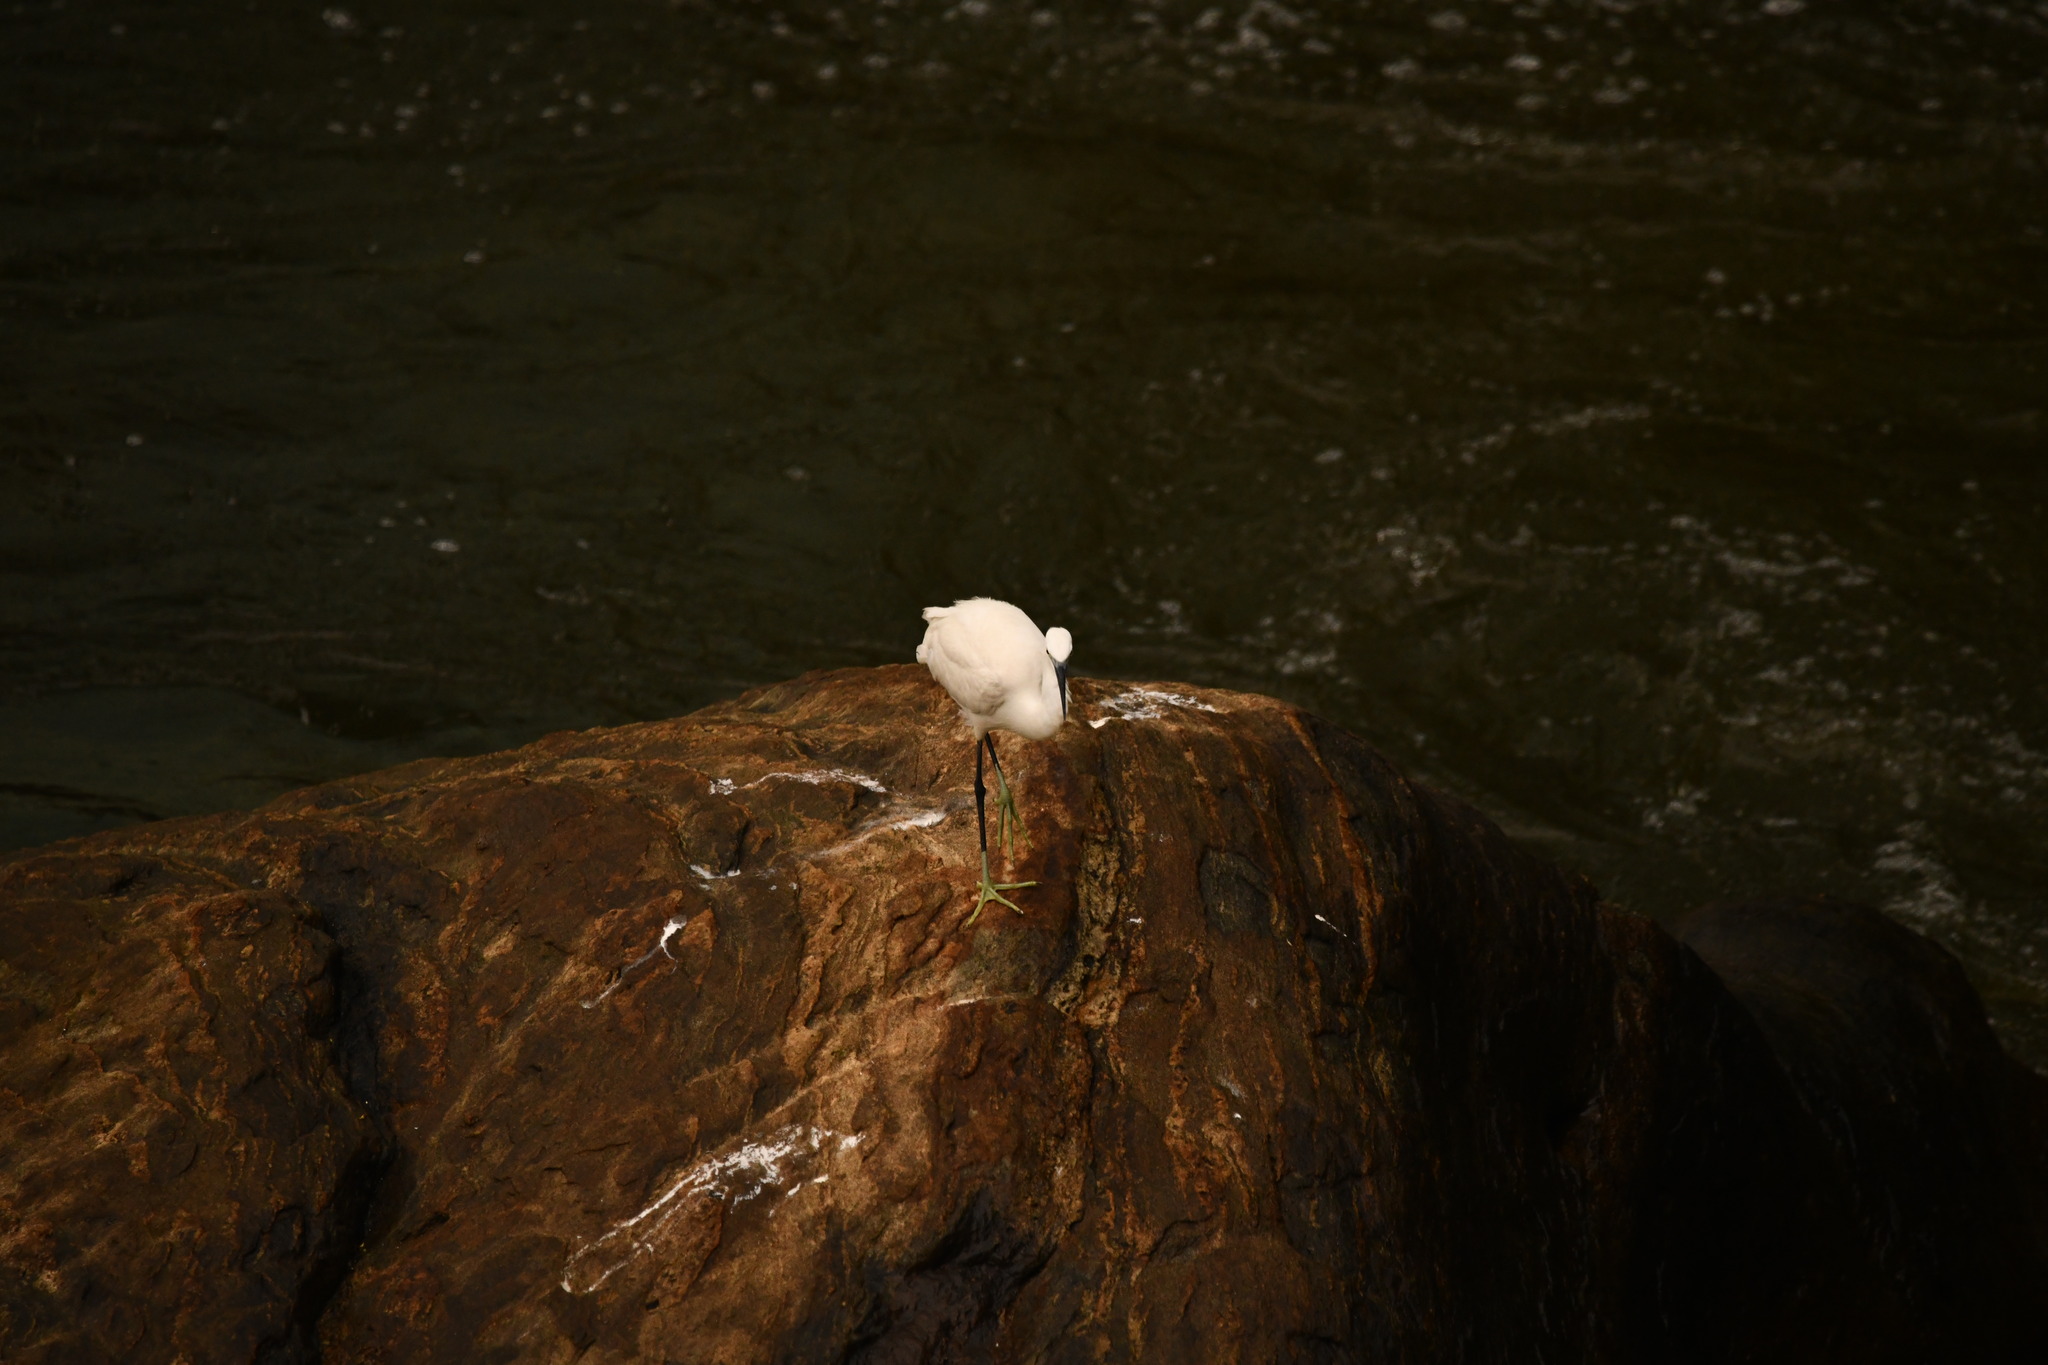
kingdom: Animalia
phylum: Chordata
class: Aves
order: Pelecaniformes
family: Ardeidae
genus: Egretta
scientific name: Egretta garzetta
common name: Little egret
